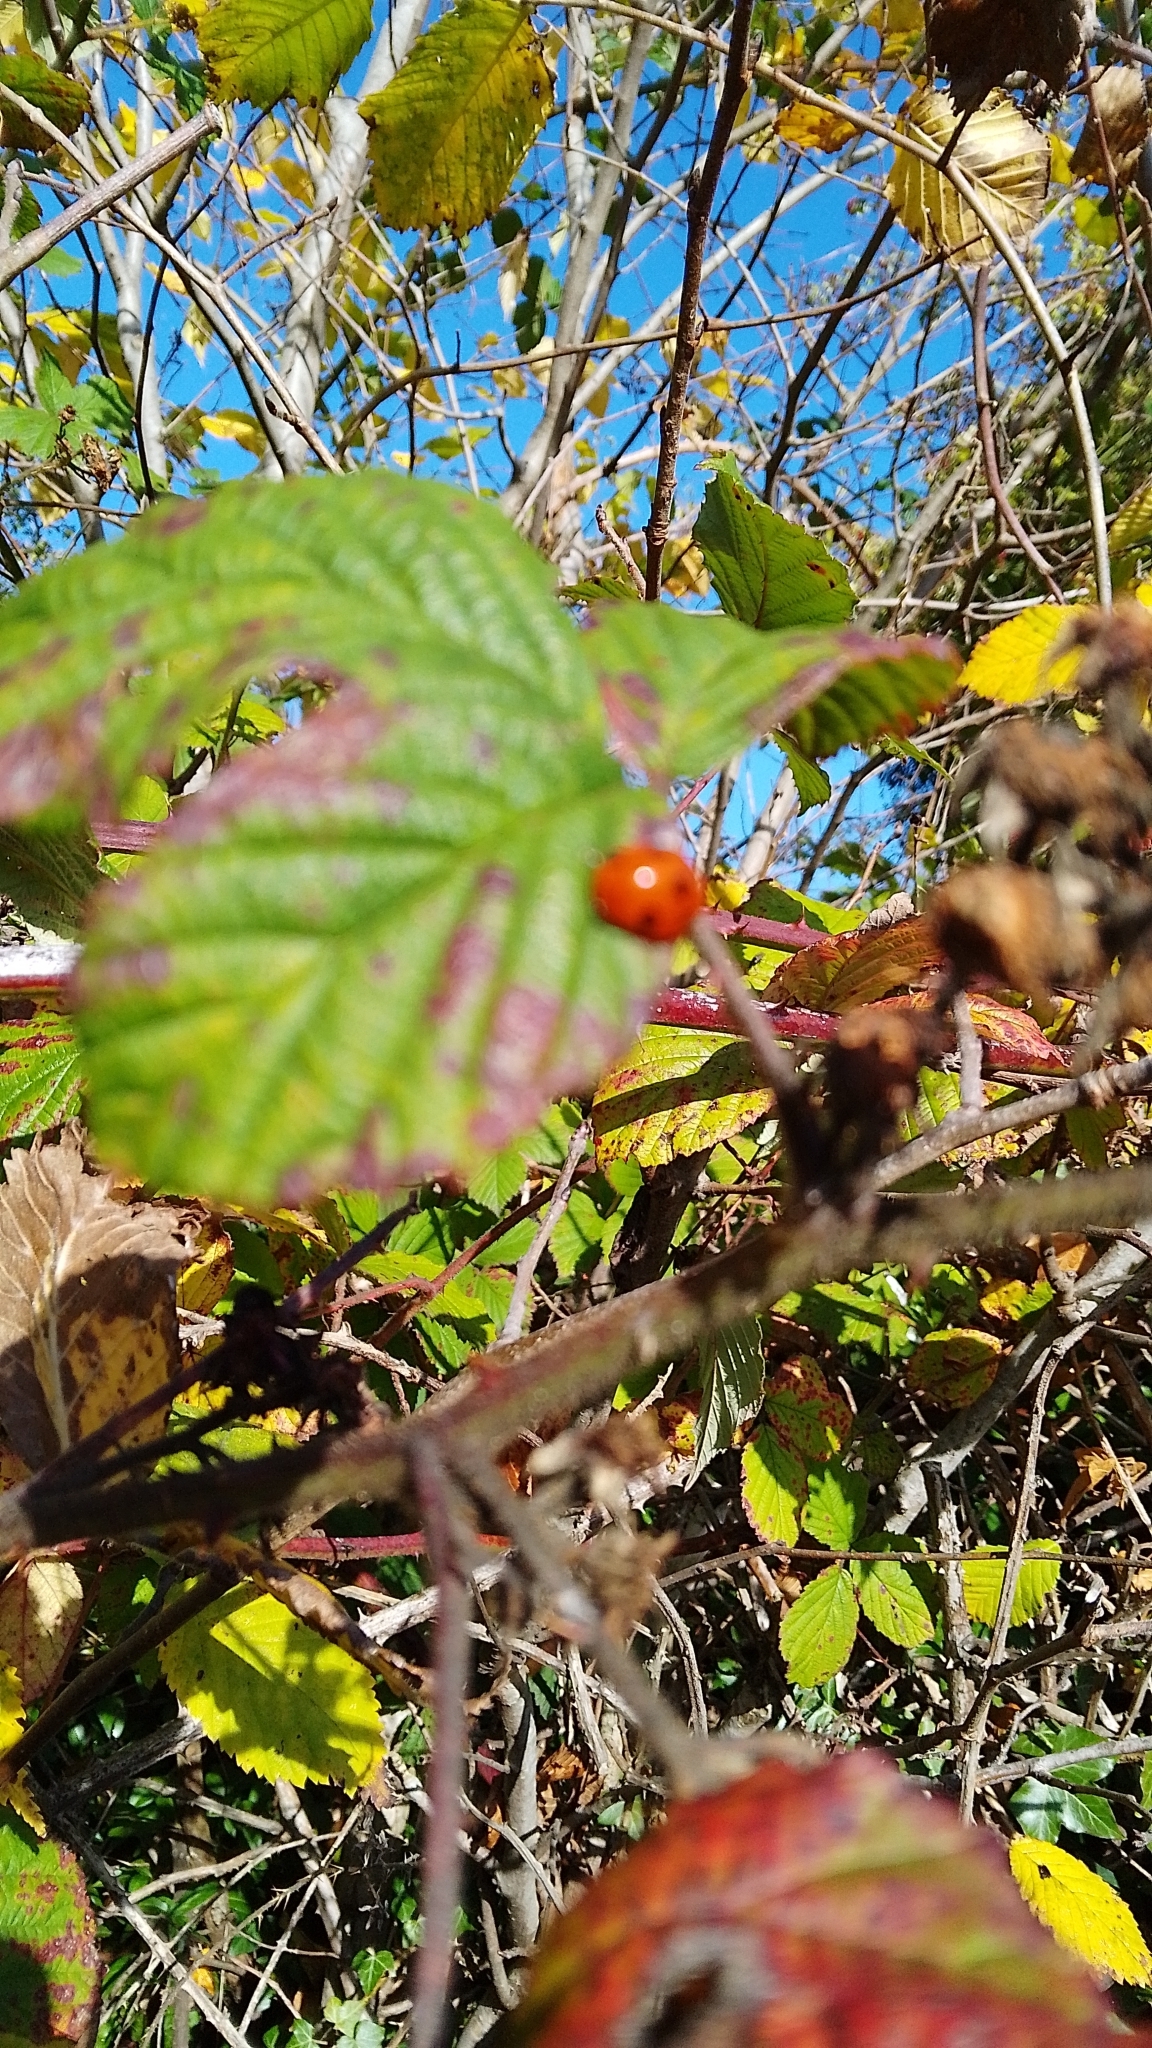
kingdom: Animalia
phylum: Arthropoda
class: Insecta
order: Coleoptera
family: Coccinellidae
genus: Coccinella
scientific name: Coccinella septempunctata
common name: Sevenspotted lady beetle
